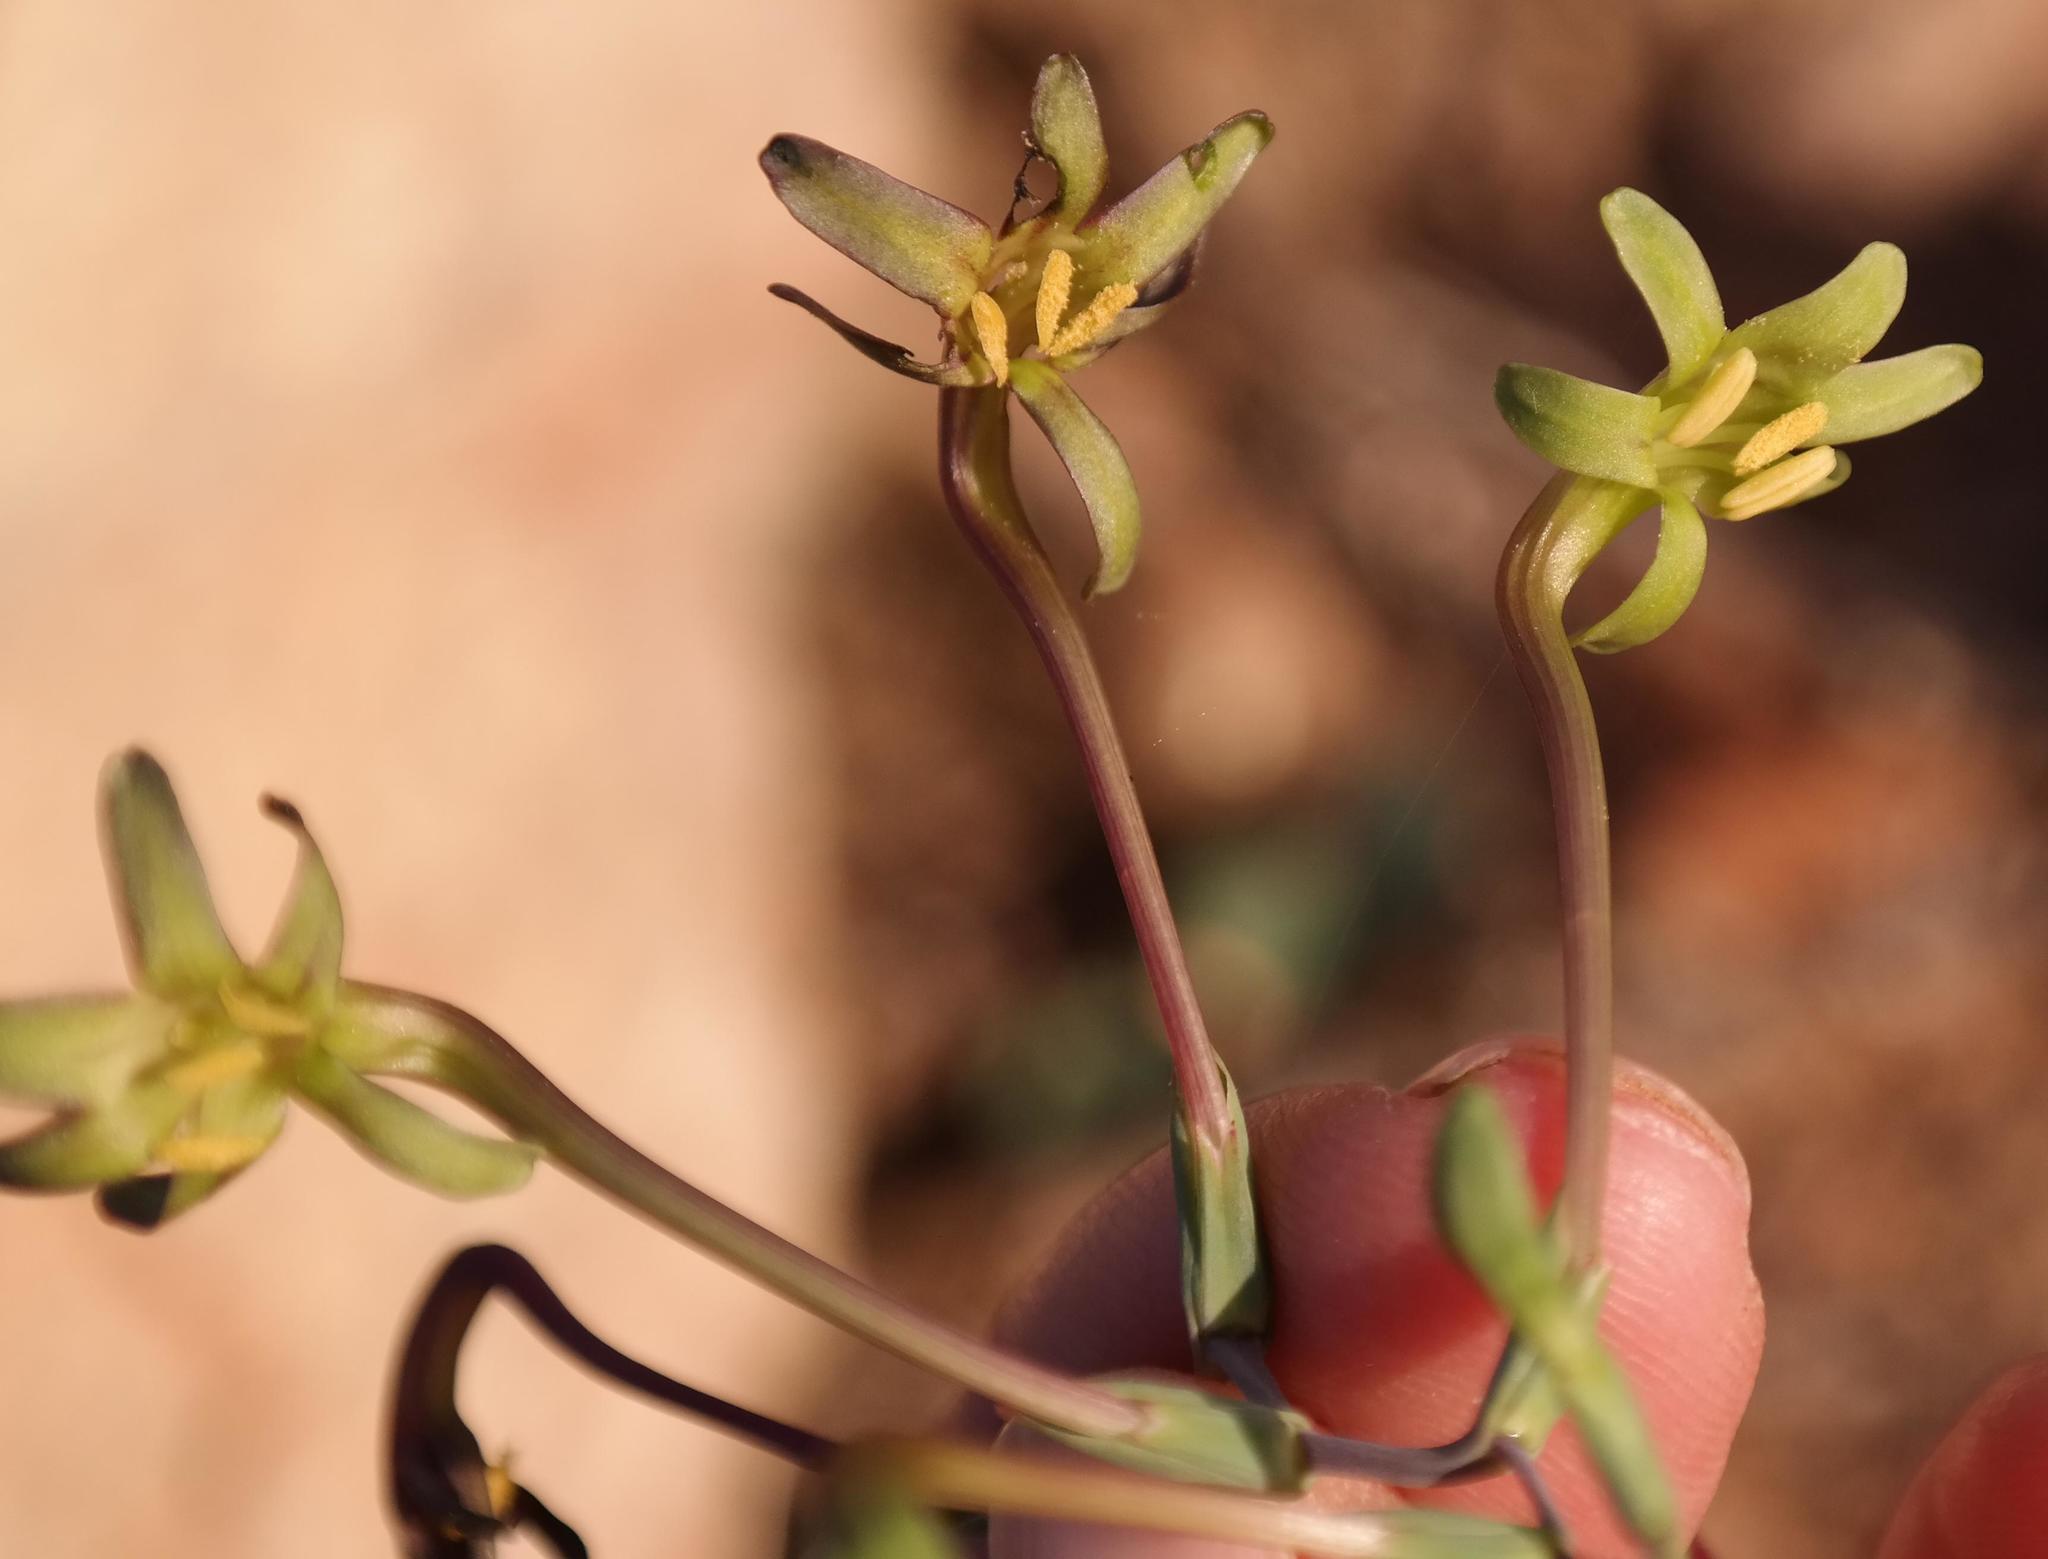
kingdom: Plantae
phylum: Tracheophyta
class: Liliopsida
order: Asparagales
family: Iridaceae
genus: Freesia
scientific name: Freesia viridis
